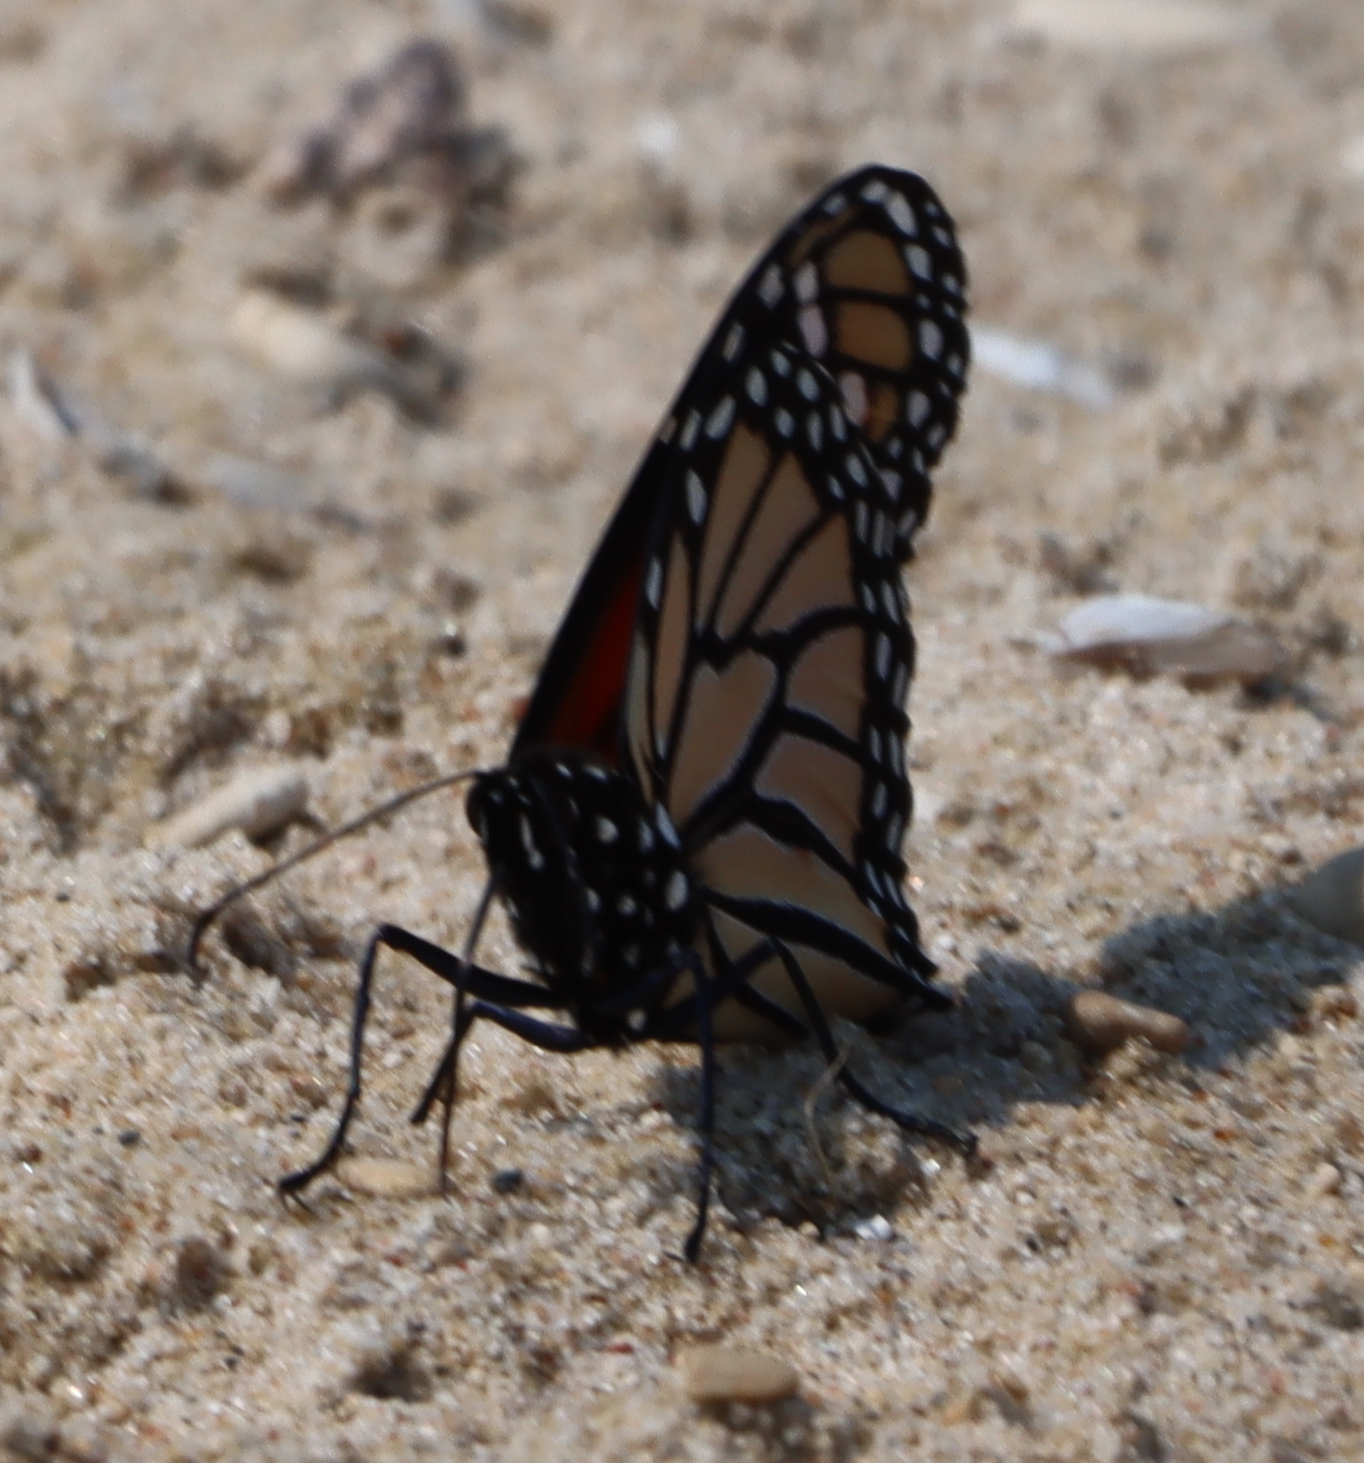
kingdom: Animalia
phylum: Arthropoda
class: Insecta
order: Lepidoptera
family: Nymphalidae
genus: Danaus
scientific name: Danaus plexippus
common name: Monarch
